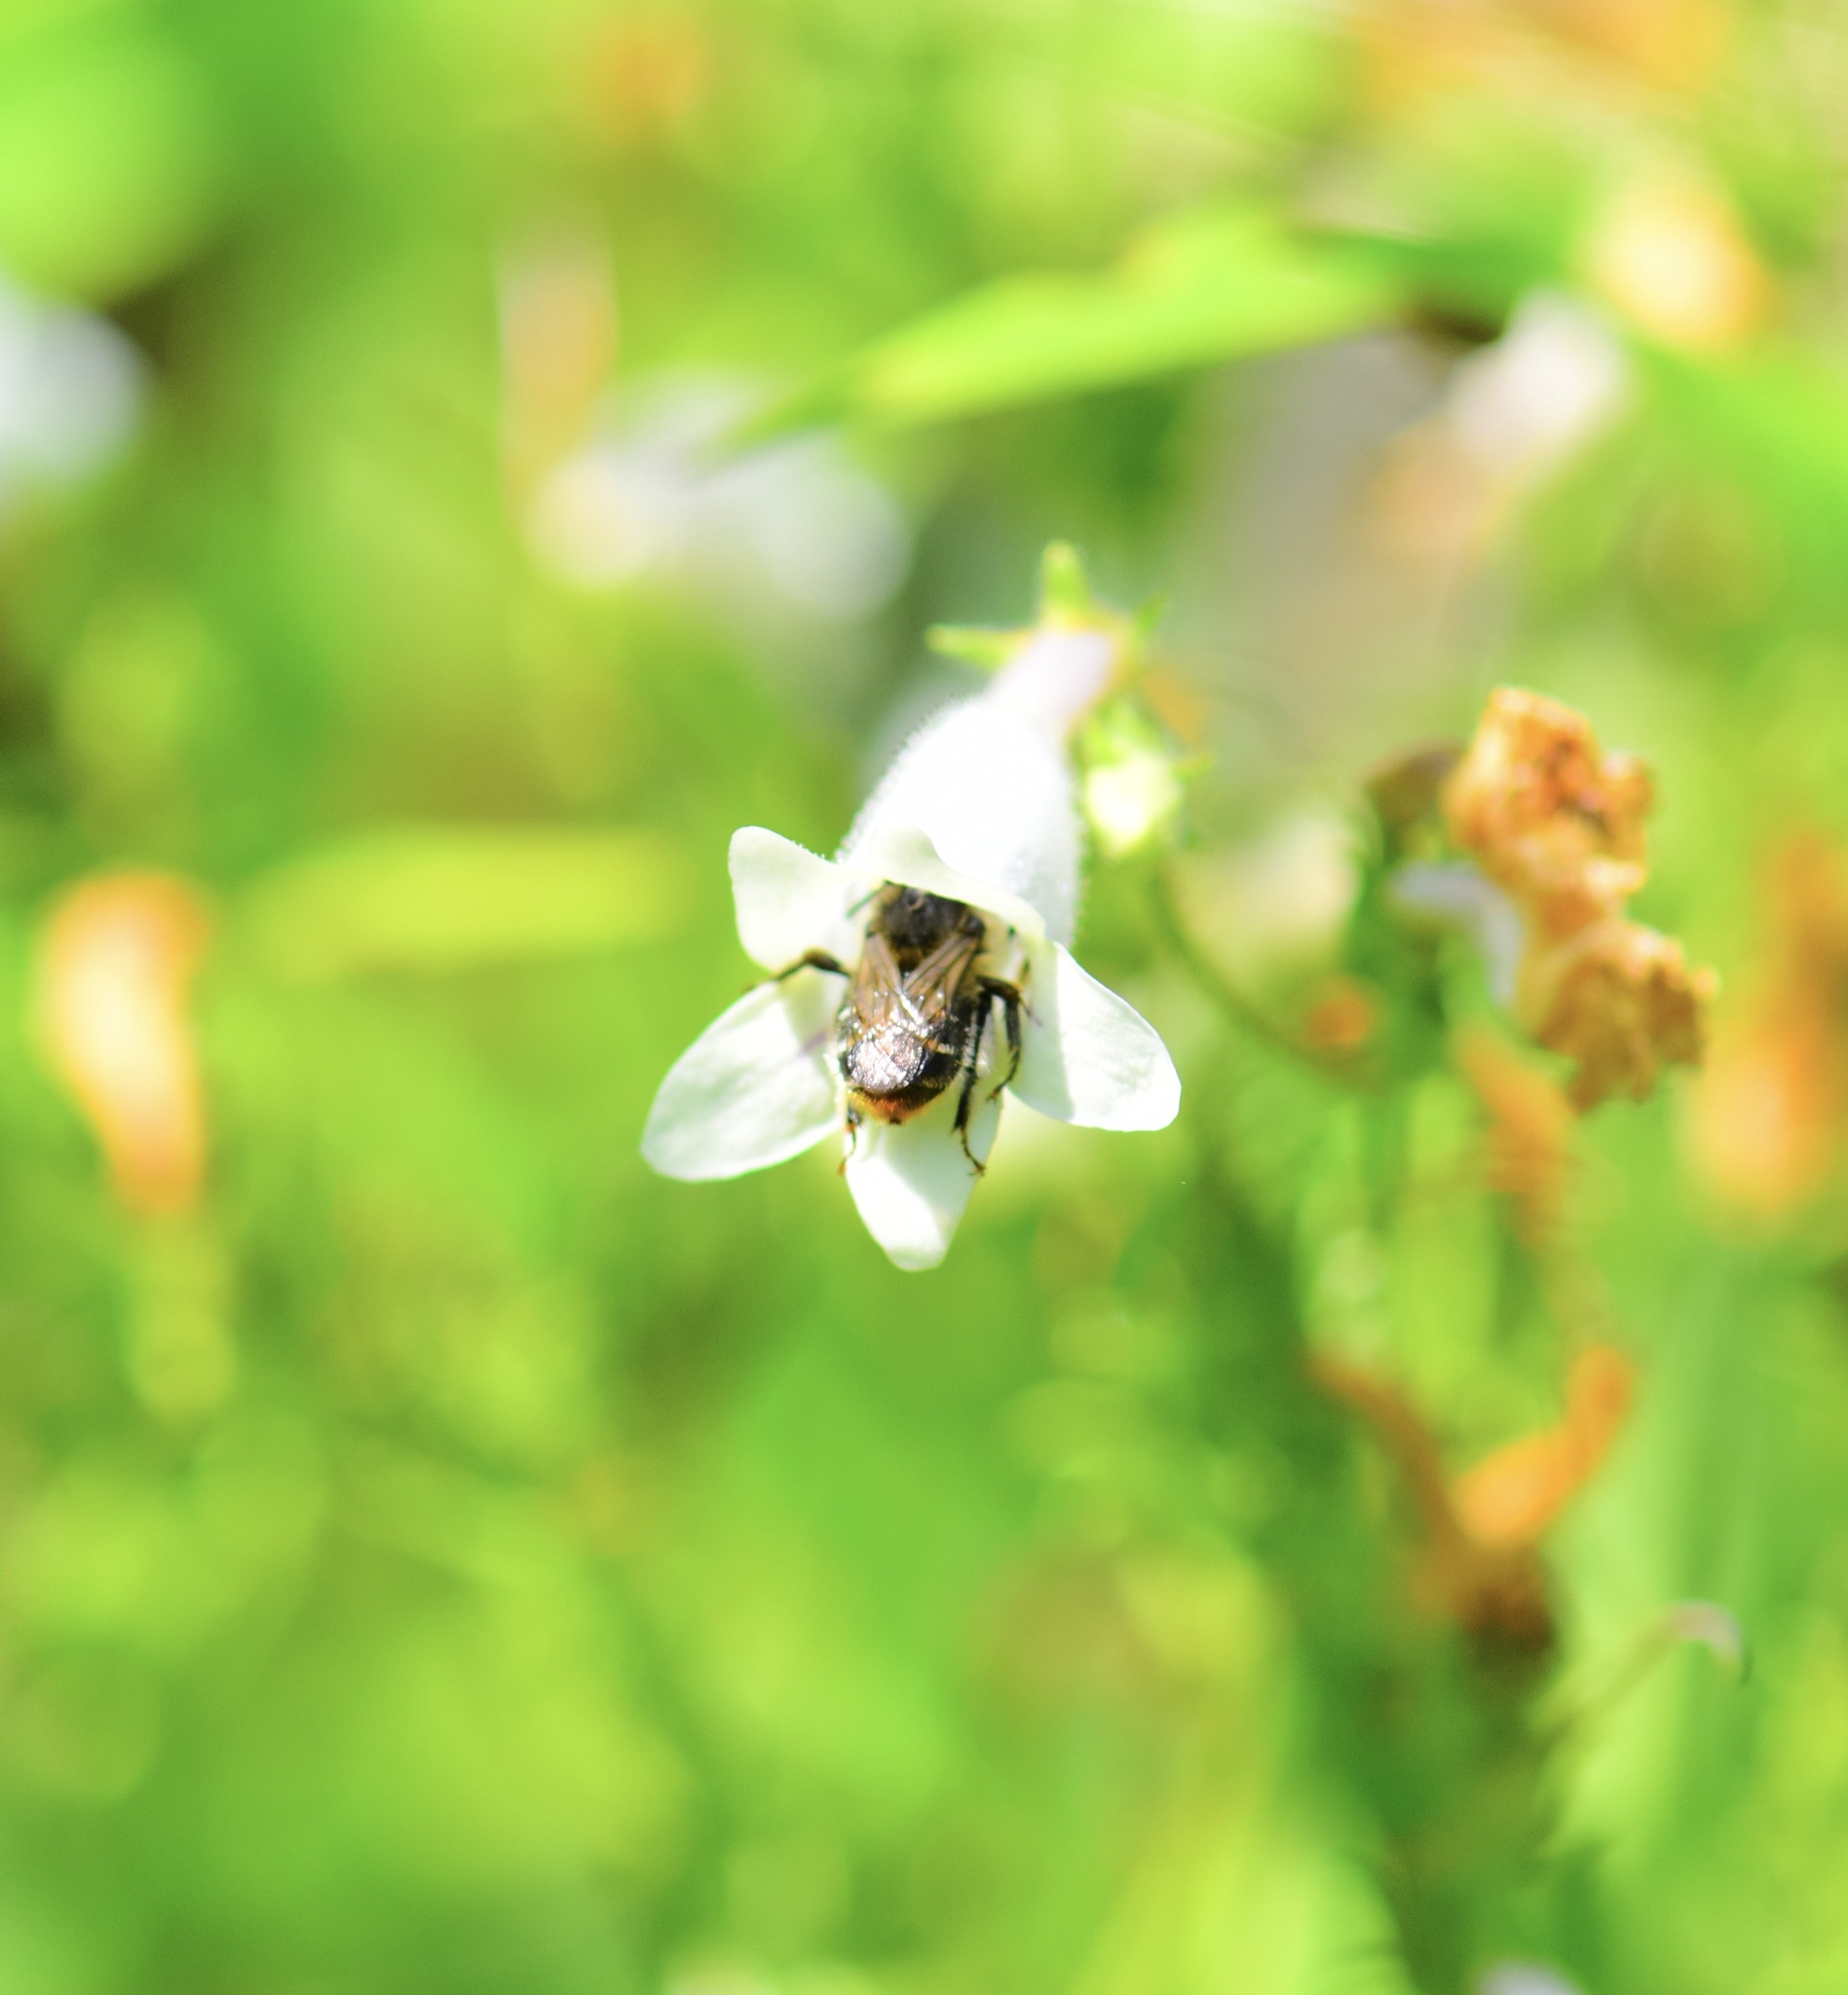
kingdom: Animalia
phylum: Arthropoda
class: Insecta
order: Hymenoptera
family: Apidae
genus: Anthophora
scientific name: Anthophora terminalis
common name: Orange-tipped wood-digger bee
